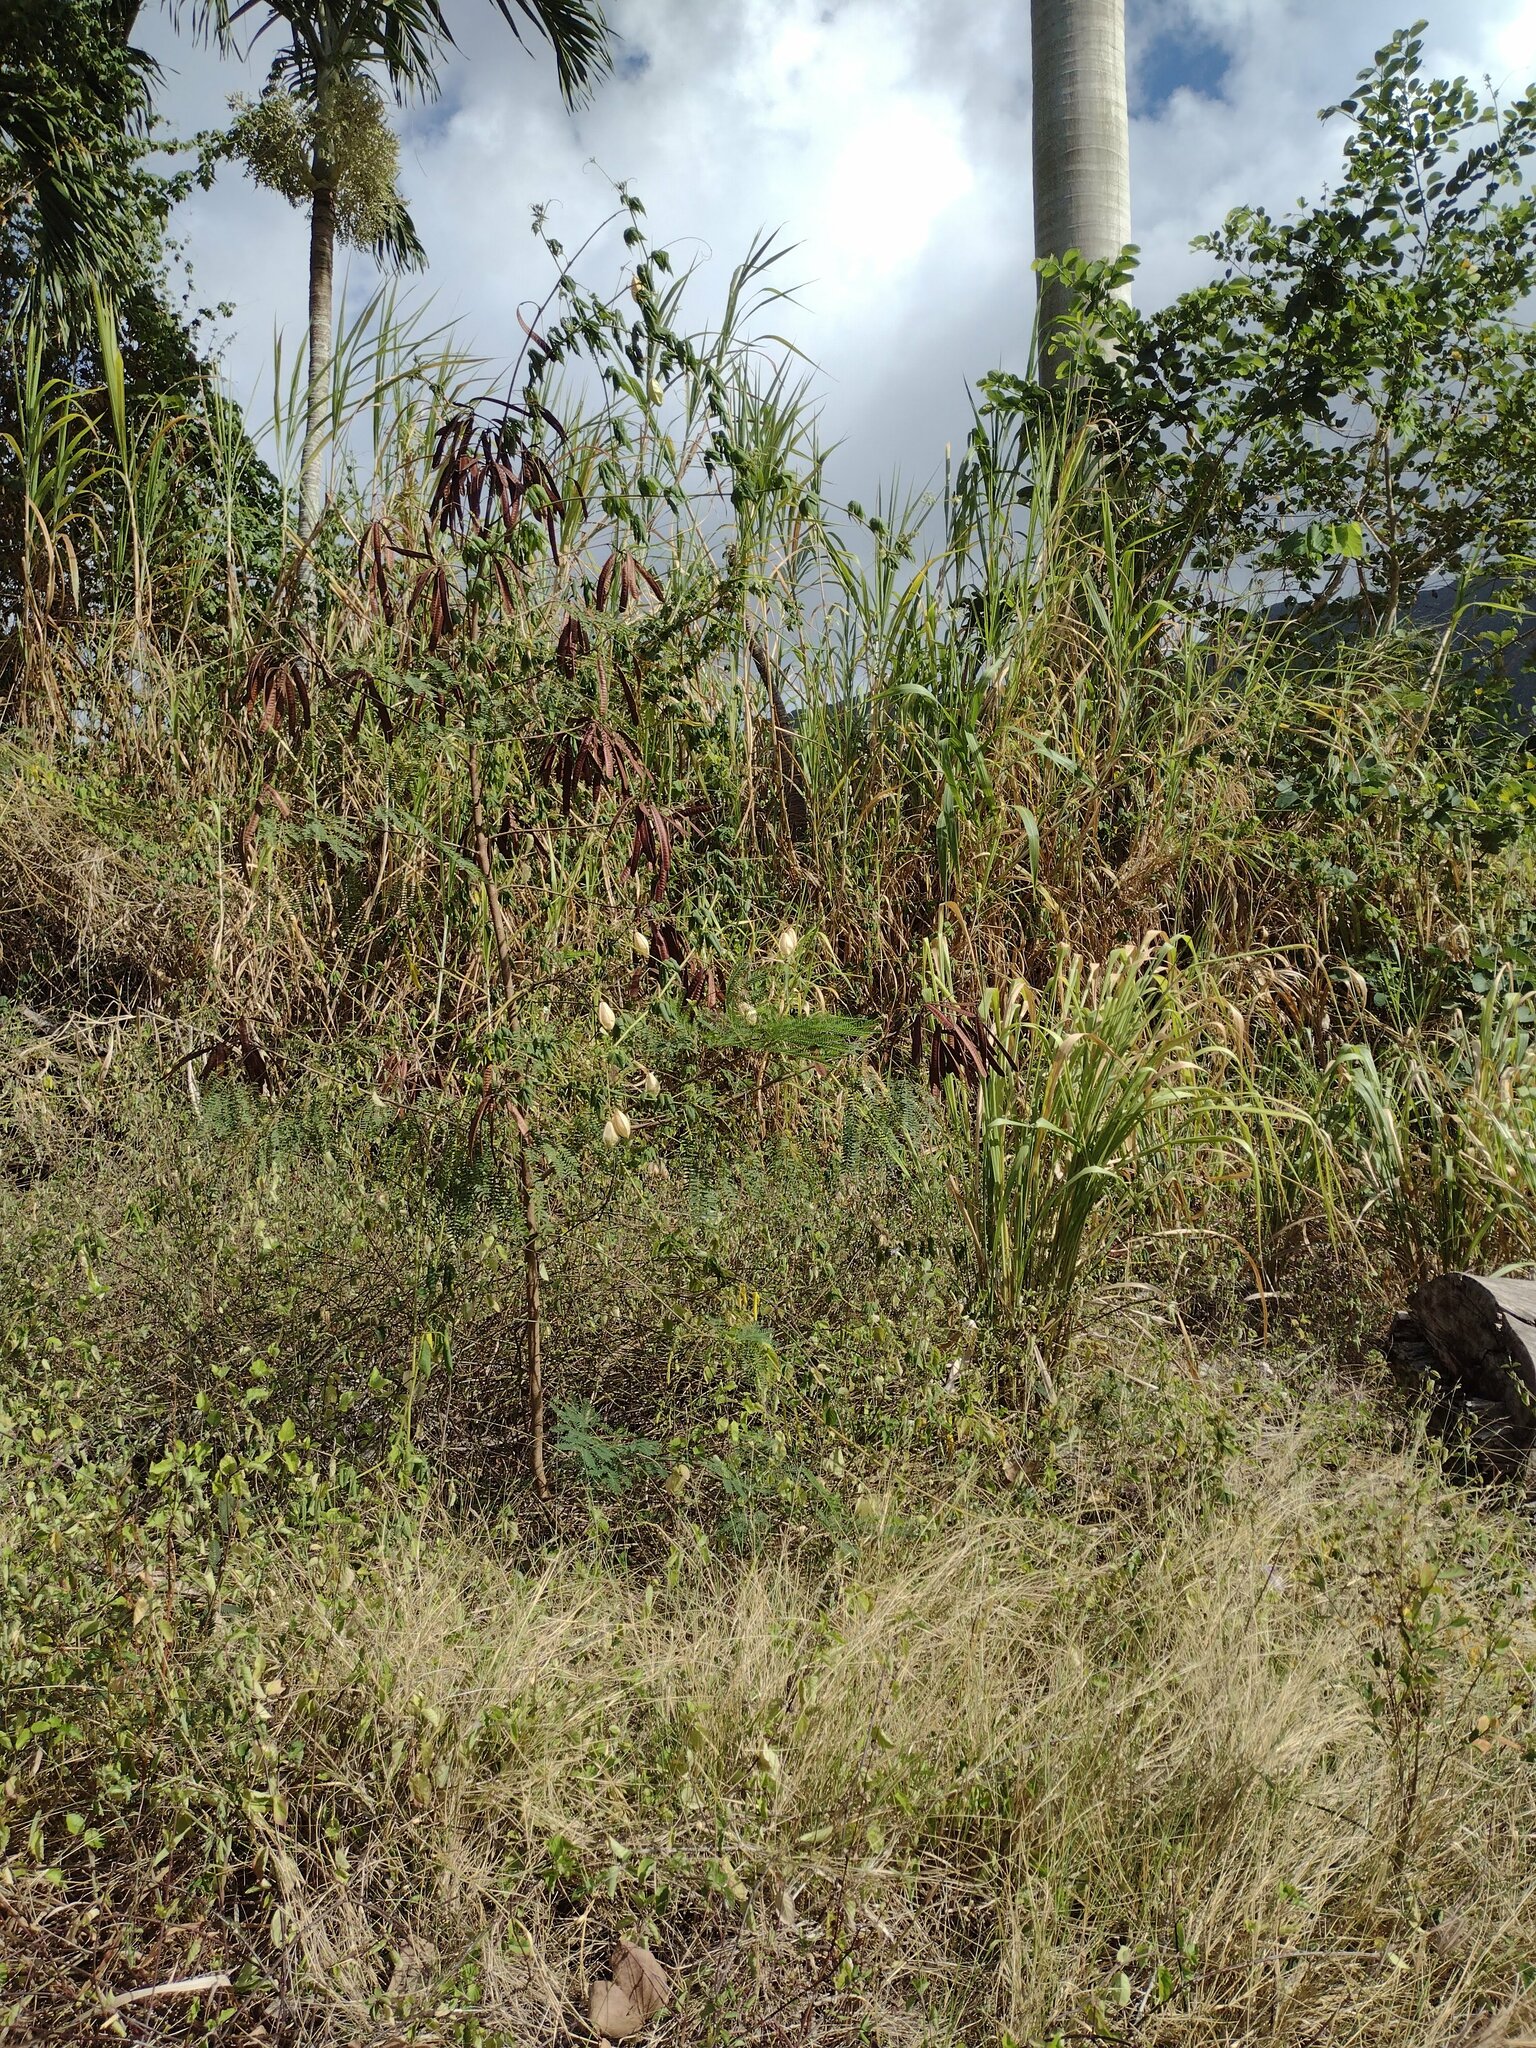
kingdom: Plantae
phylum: Tracheophyta
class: Magnoliopsida
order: Fabales
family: Fabaceae
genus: Leucaena
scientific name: Leucaena leucocephala
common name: White leadtree
